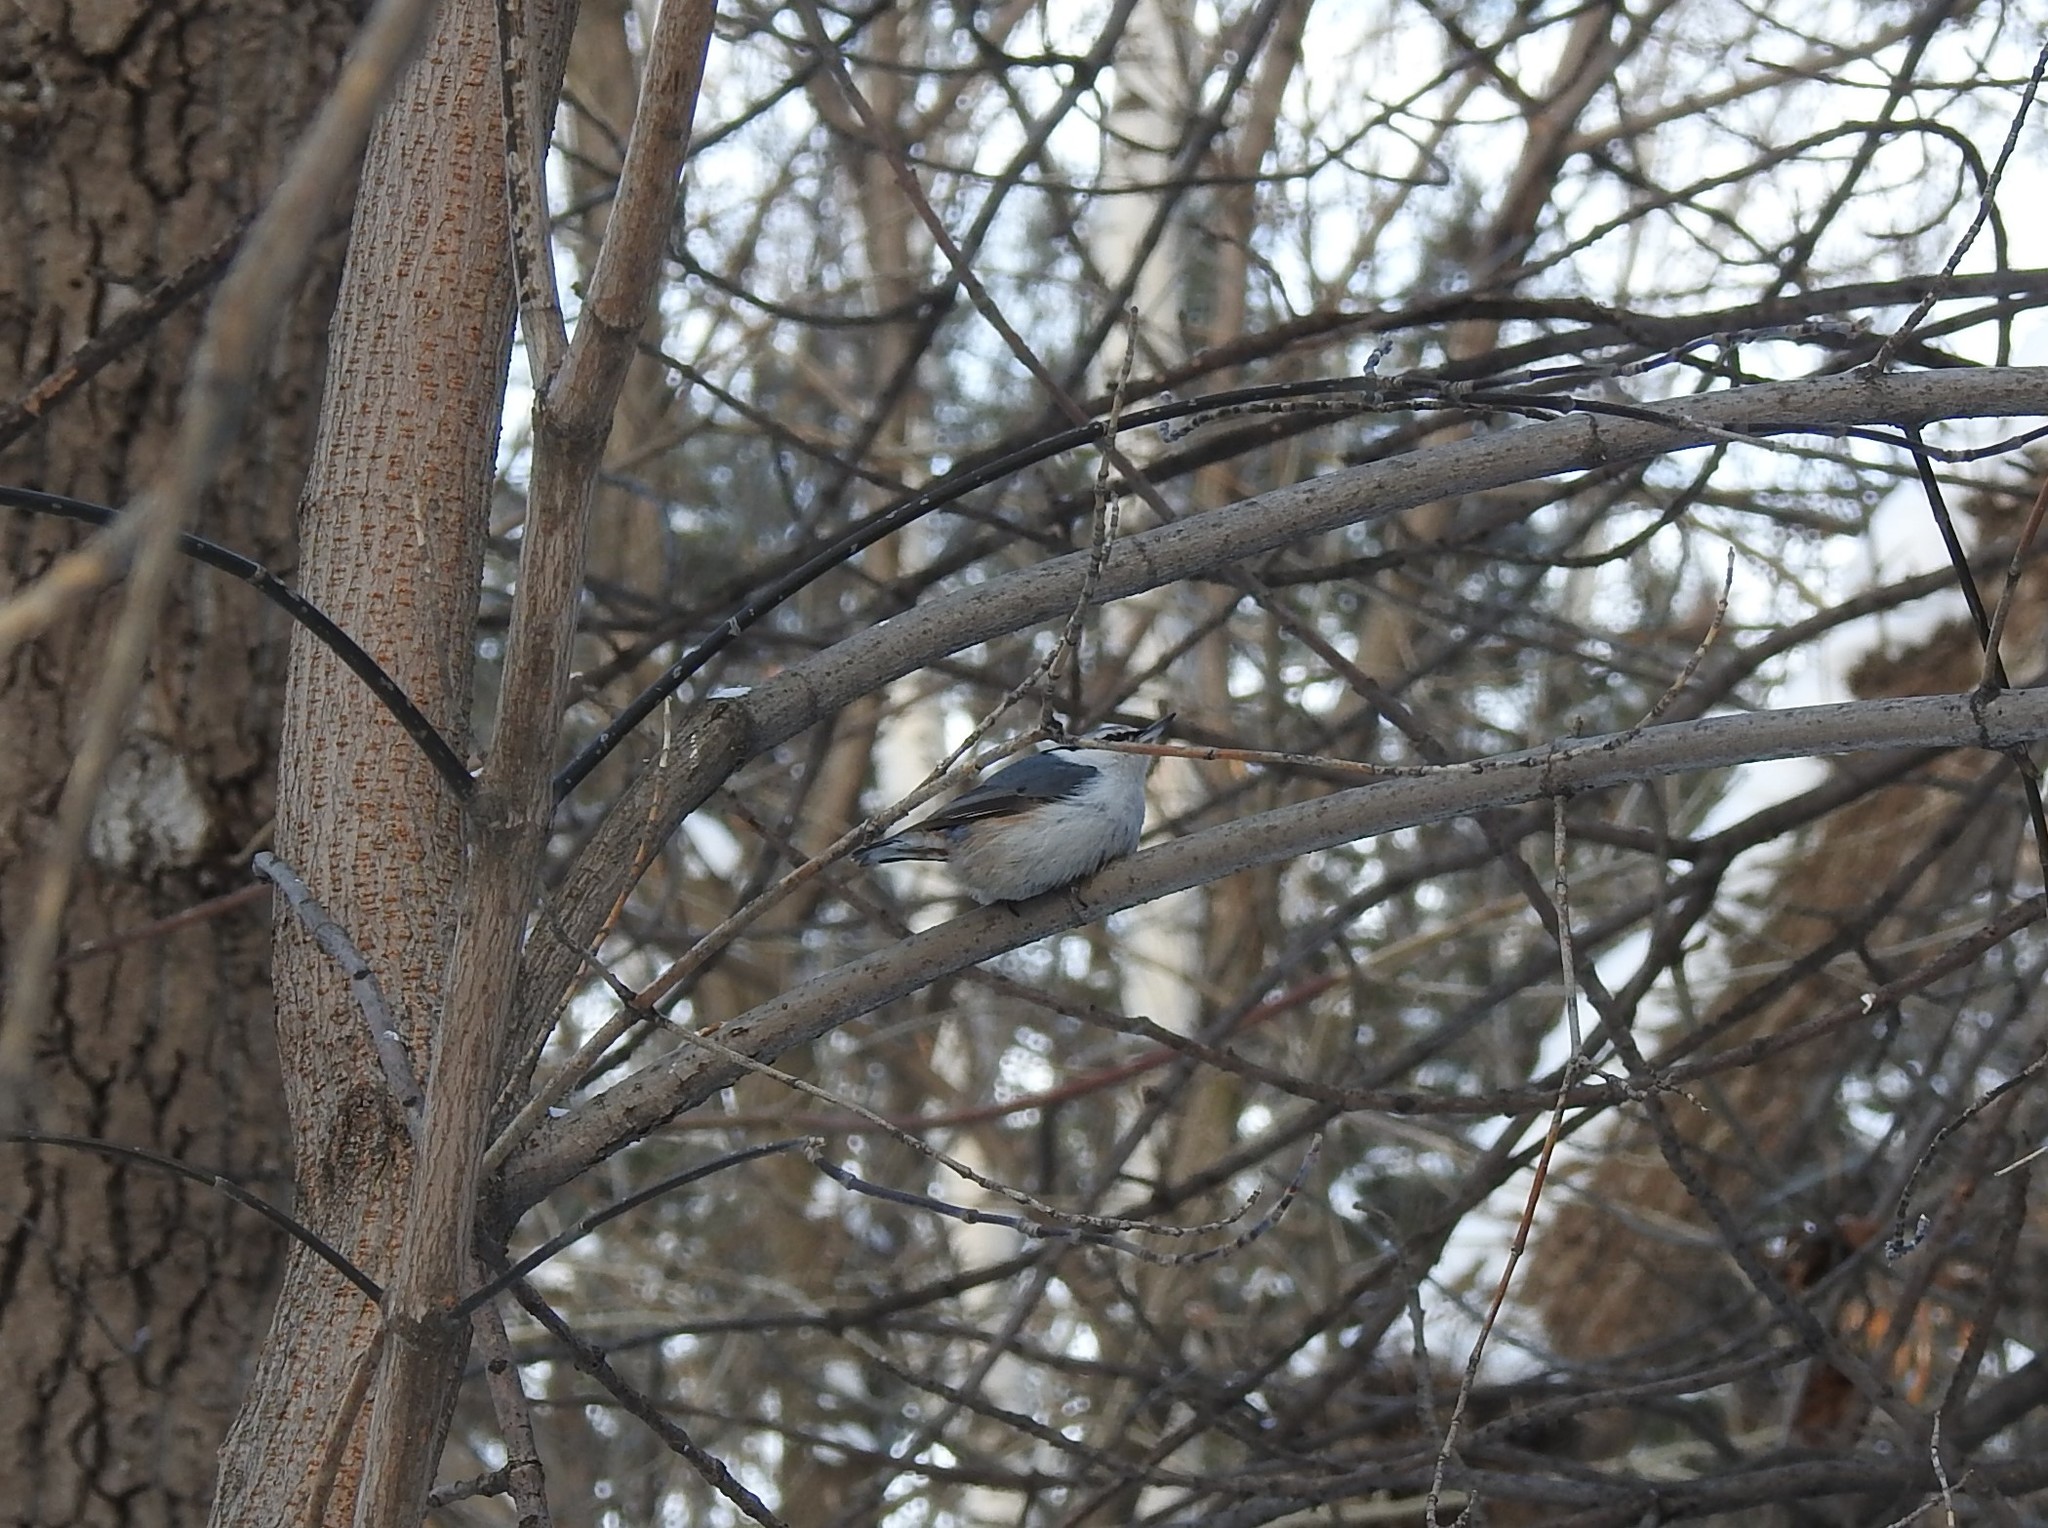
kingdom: Animalia
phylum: Chordata
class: Aves
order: Passeriformes
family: Sittidae
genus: Sitta
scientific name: Sitta europaea
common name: Eurasian nuthatch
